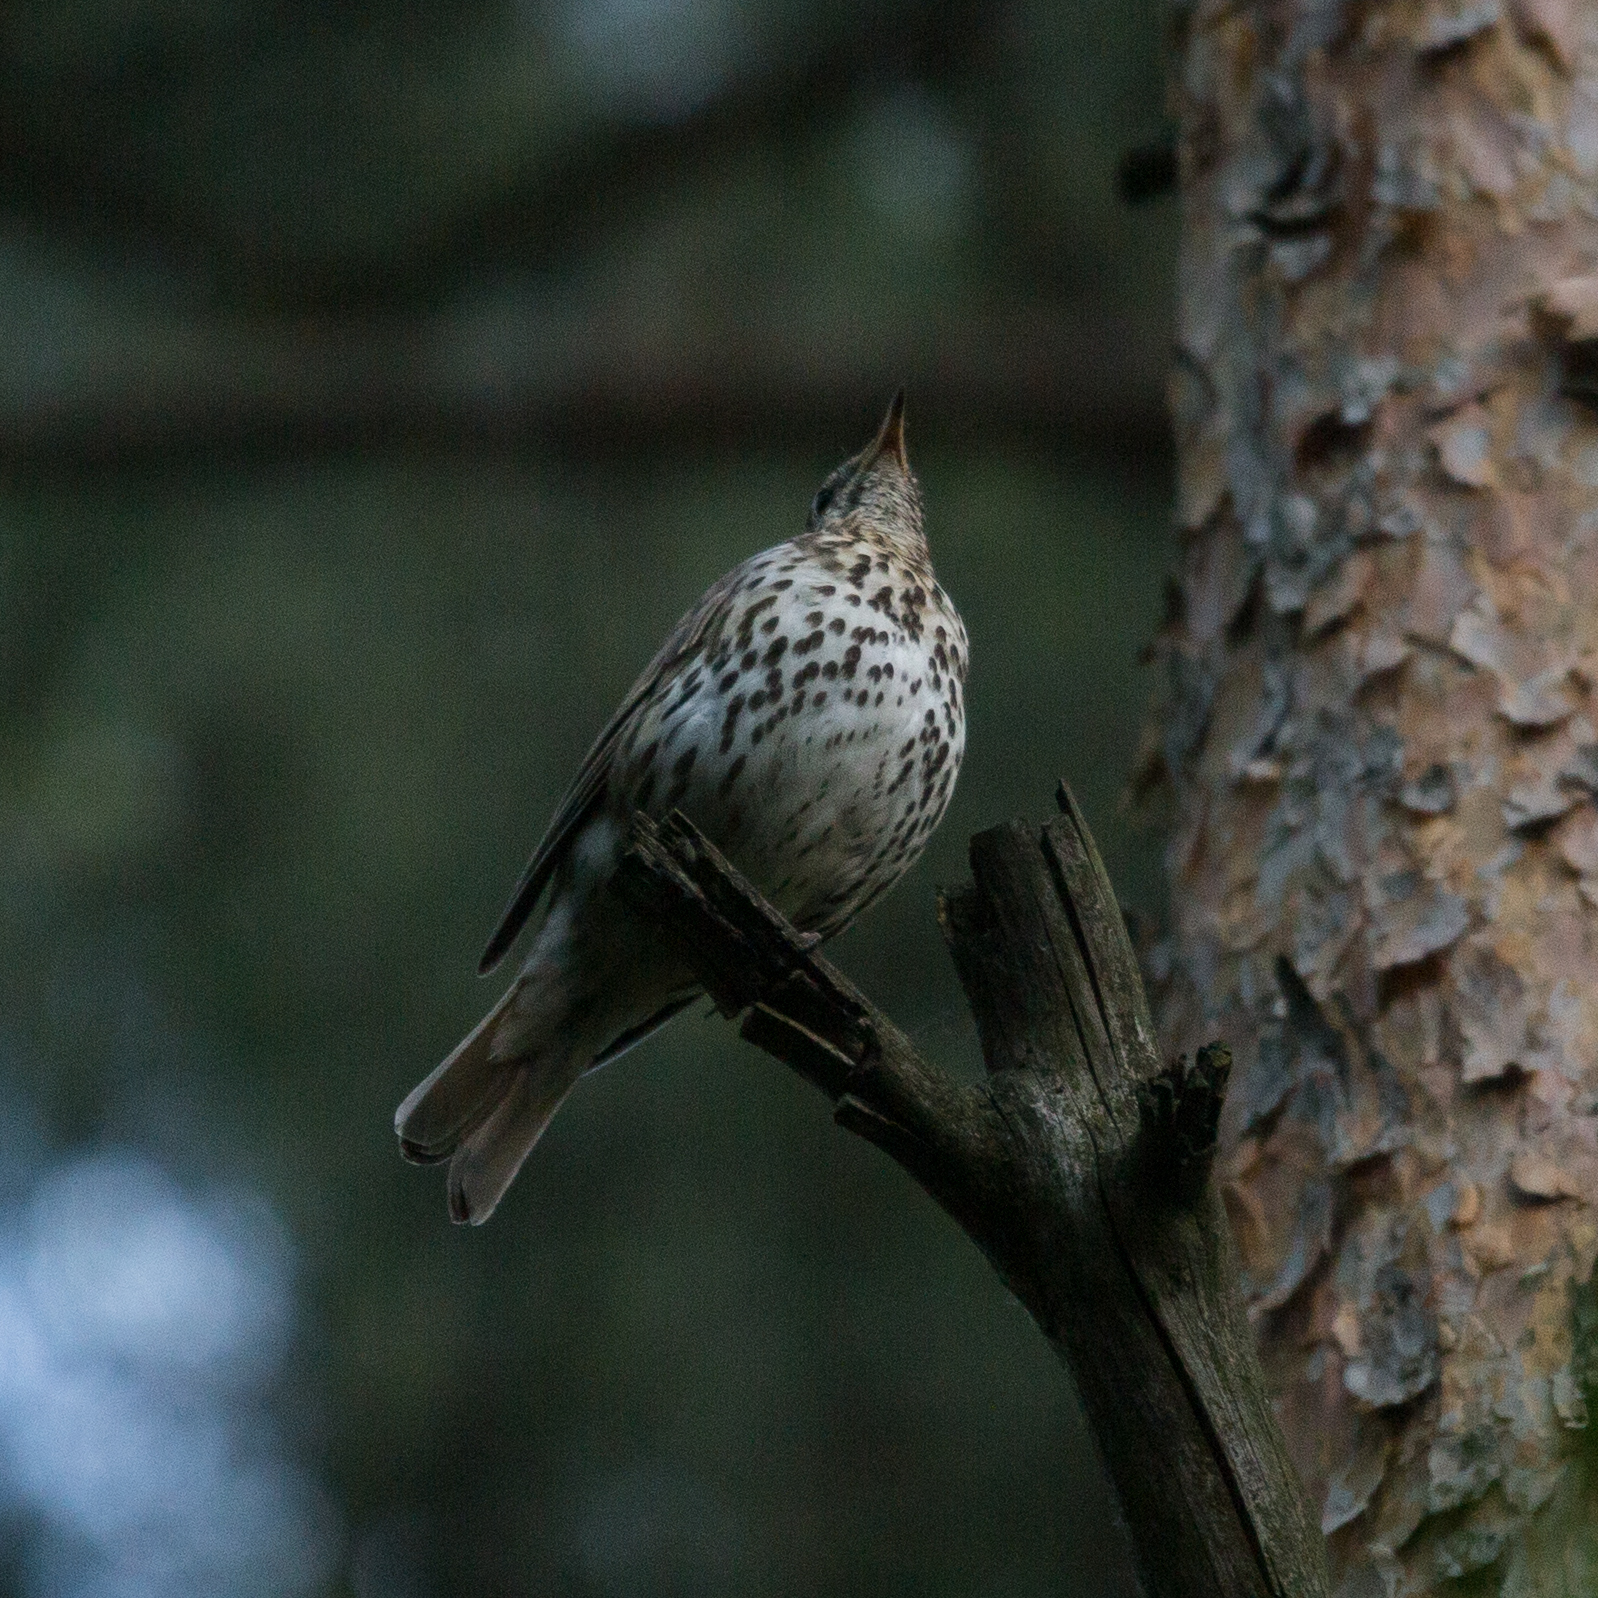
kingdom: Animalia
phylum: Chordata
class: Aves
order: Passeriformes
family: Turdidae
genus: Turdus
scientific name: Turdus philomelos
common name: Song thrush
